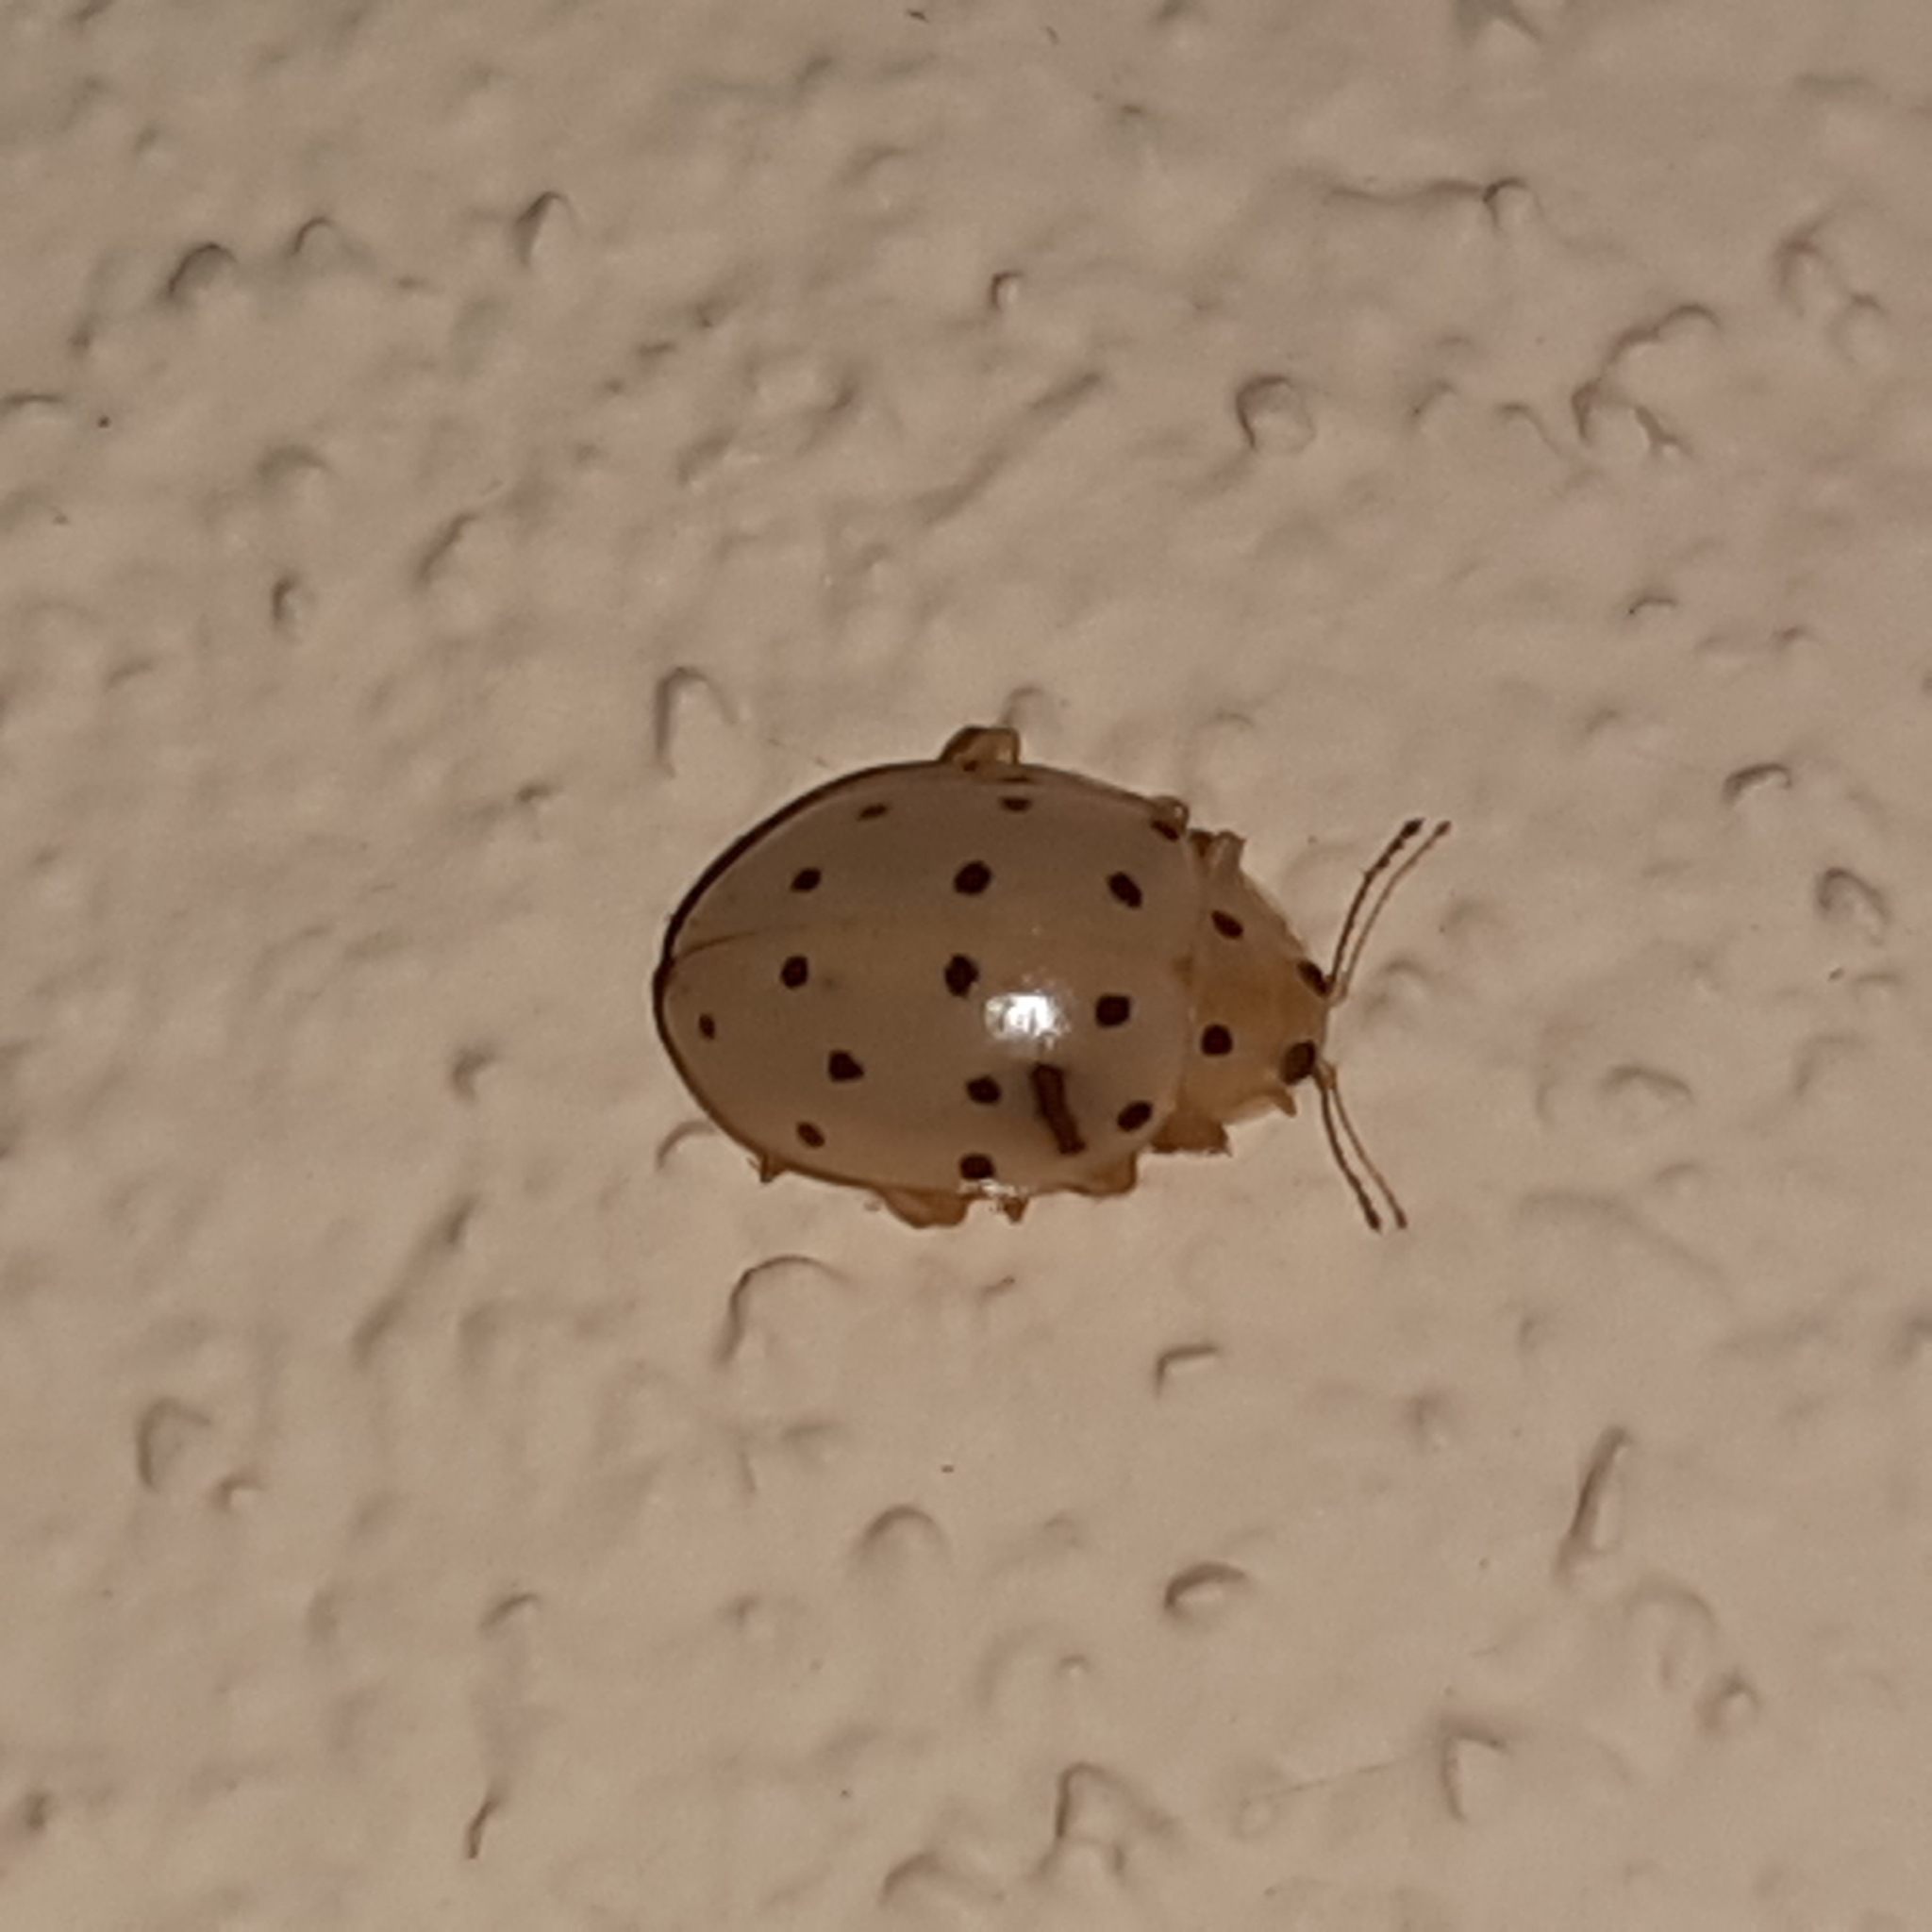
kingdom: Animalia
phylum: Arthropoda
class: Insecta
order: Coleoptera
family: Coccinellidae
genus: Neohalyzia
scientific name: Neohalyzia
